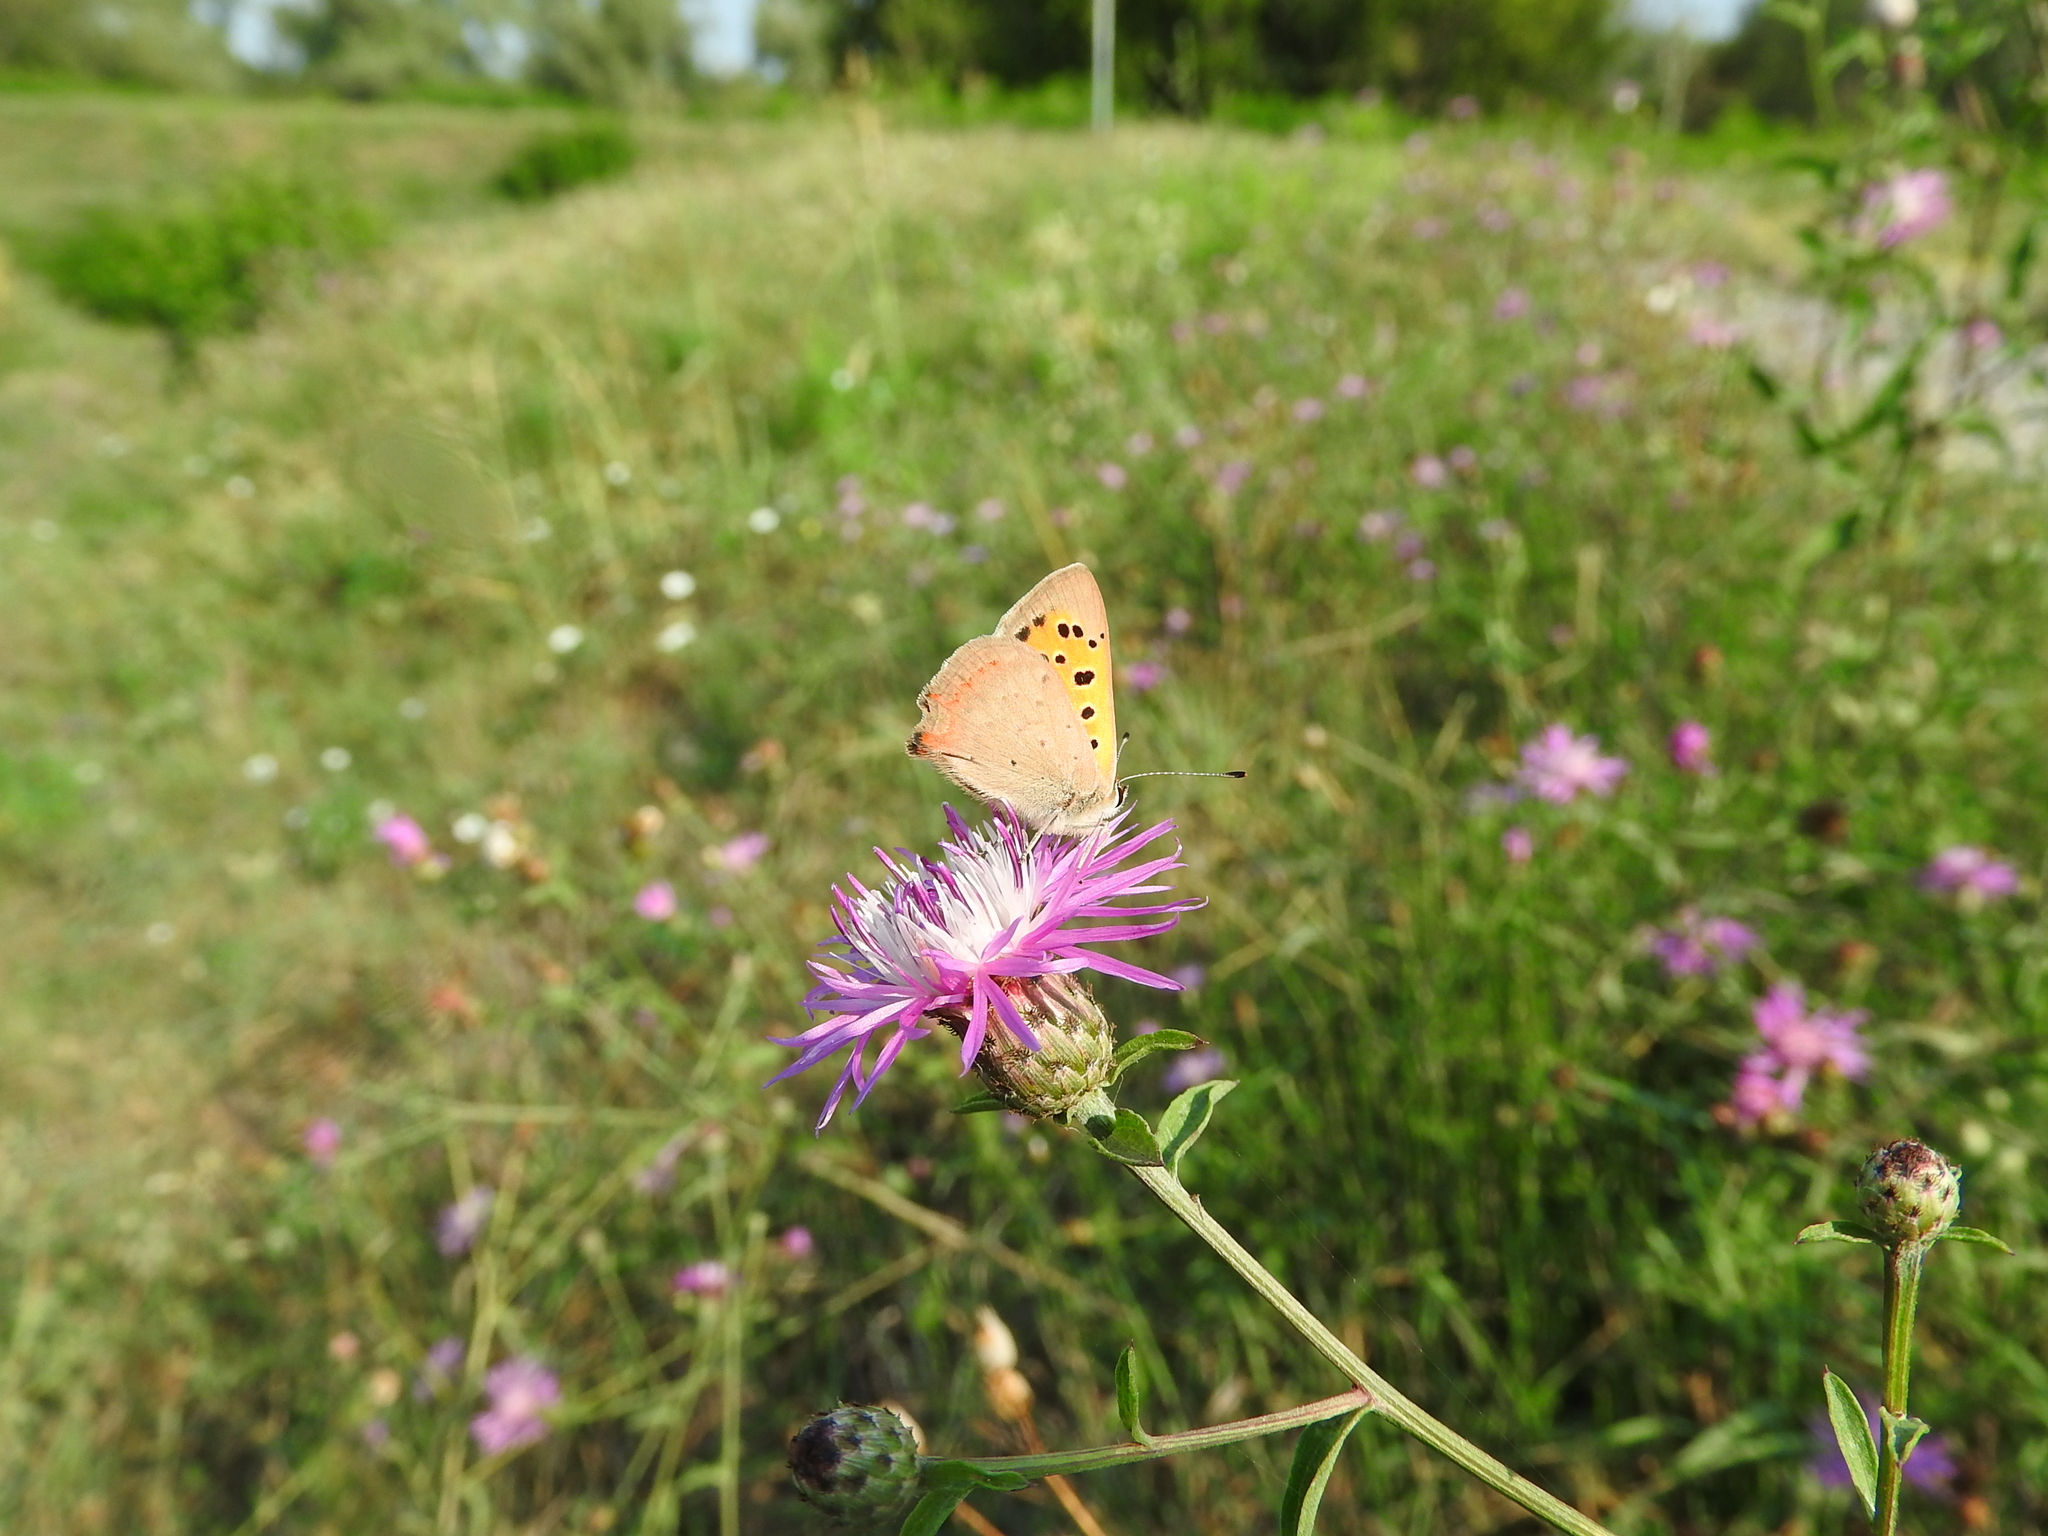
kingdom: Animalia
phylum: Arthropoda
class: Insecta
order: Lepidoptera
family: Lycaenidae
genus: Lycaena
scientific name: Lycaena phlaeas
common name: Small copper
